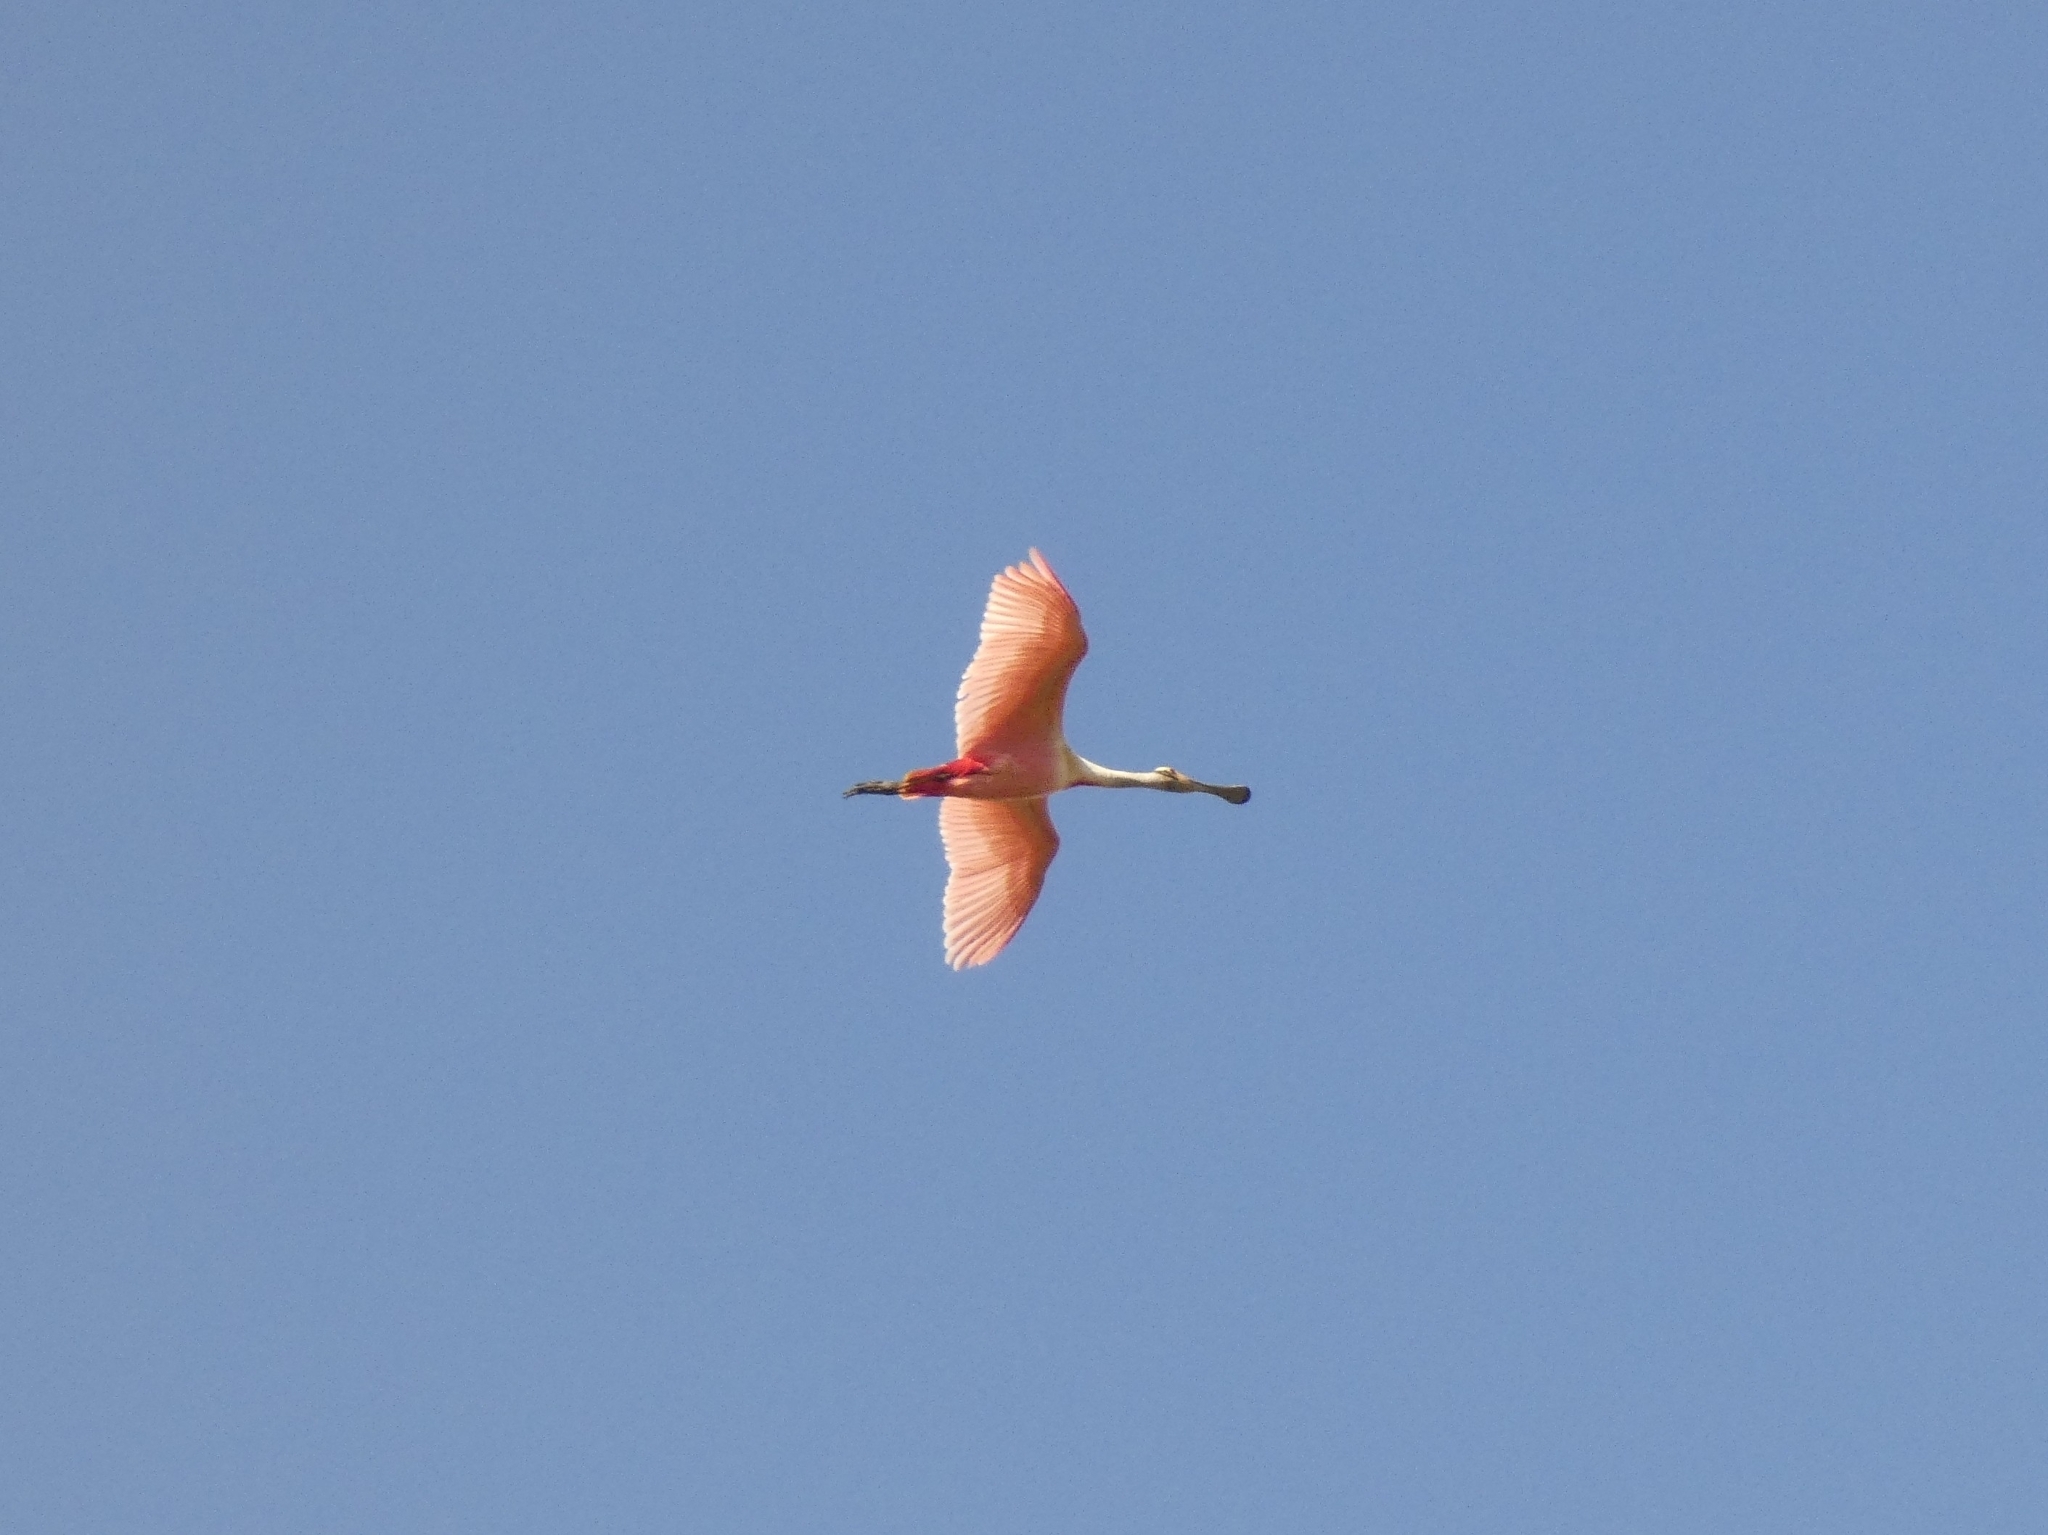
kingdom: Animalia
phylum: Chordata
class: Aves
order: Pelecaniformes
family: Threskiornithidae
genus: Platalea
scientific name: Platalea ajaja
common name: Roseate spoonbill
